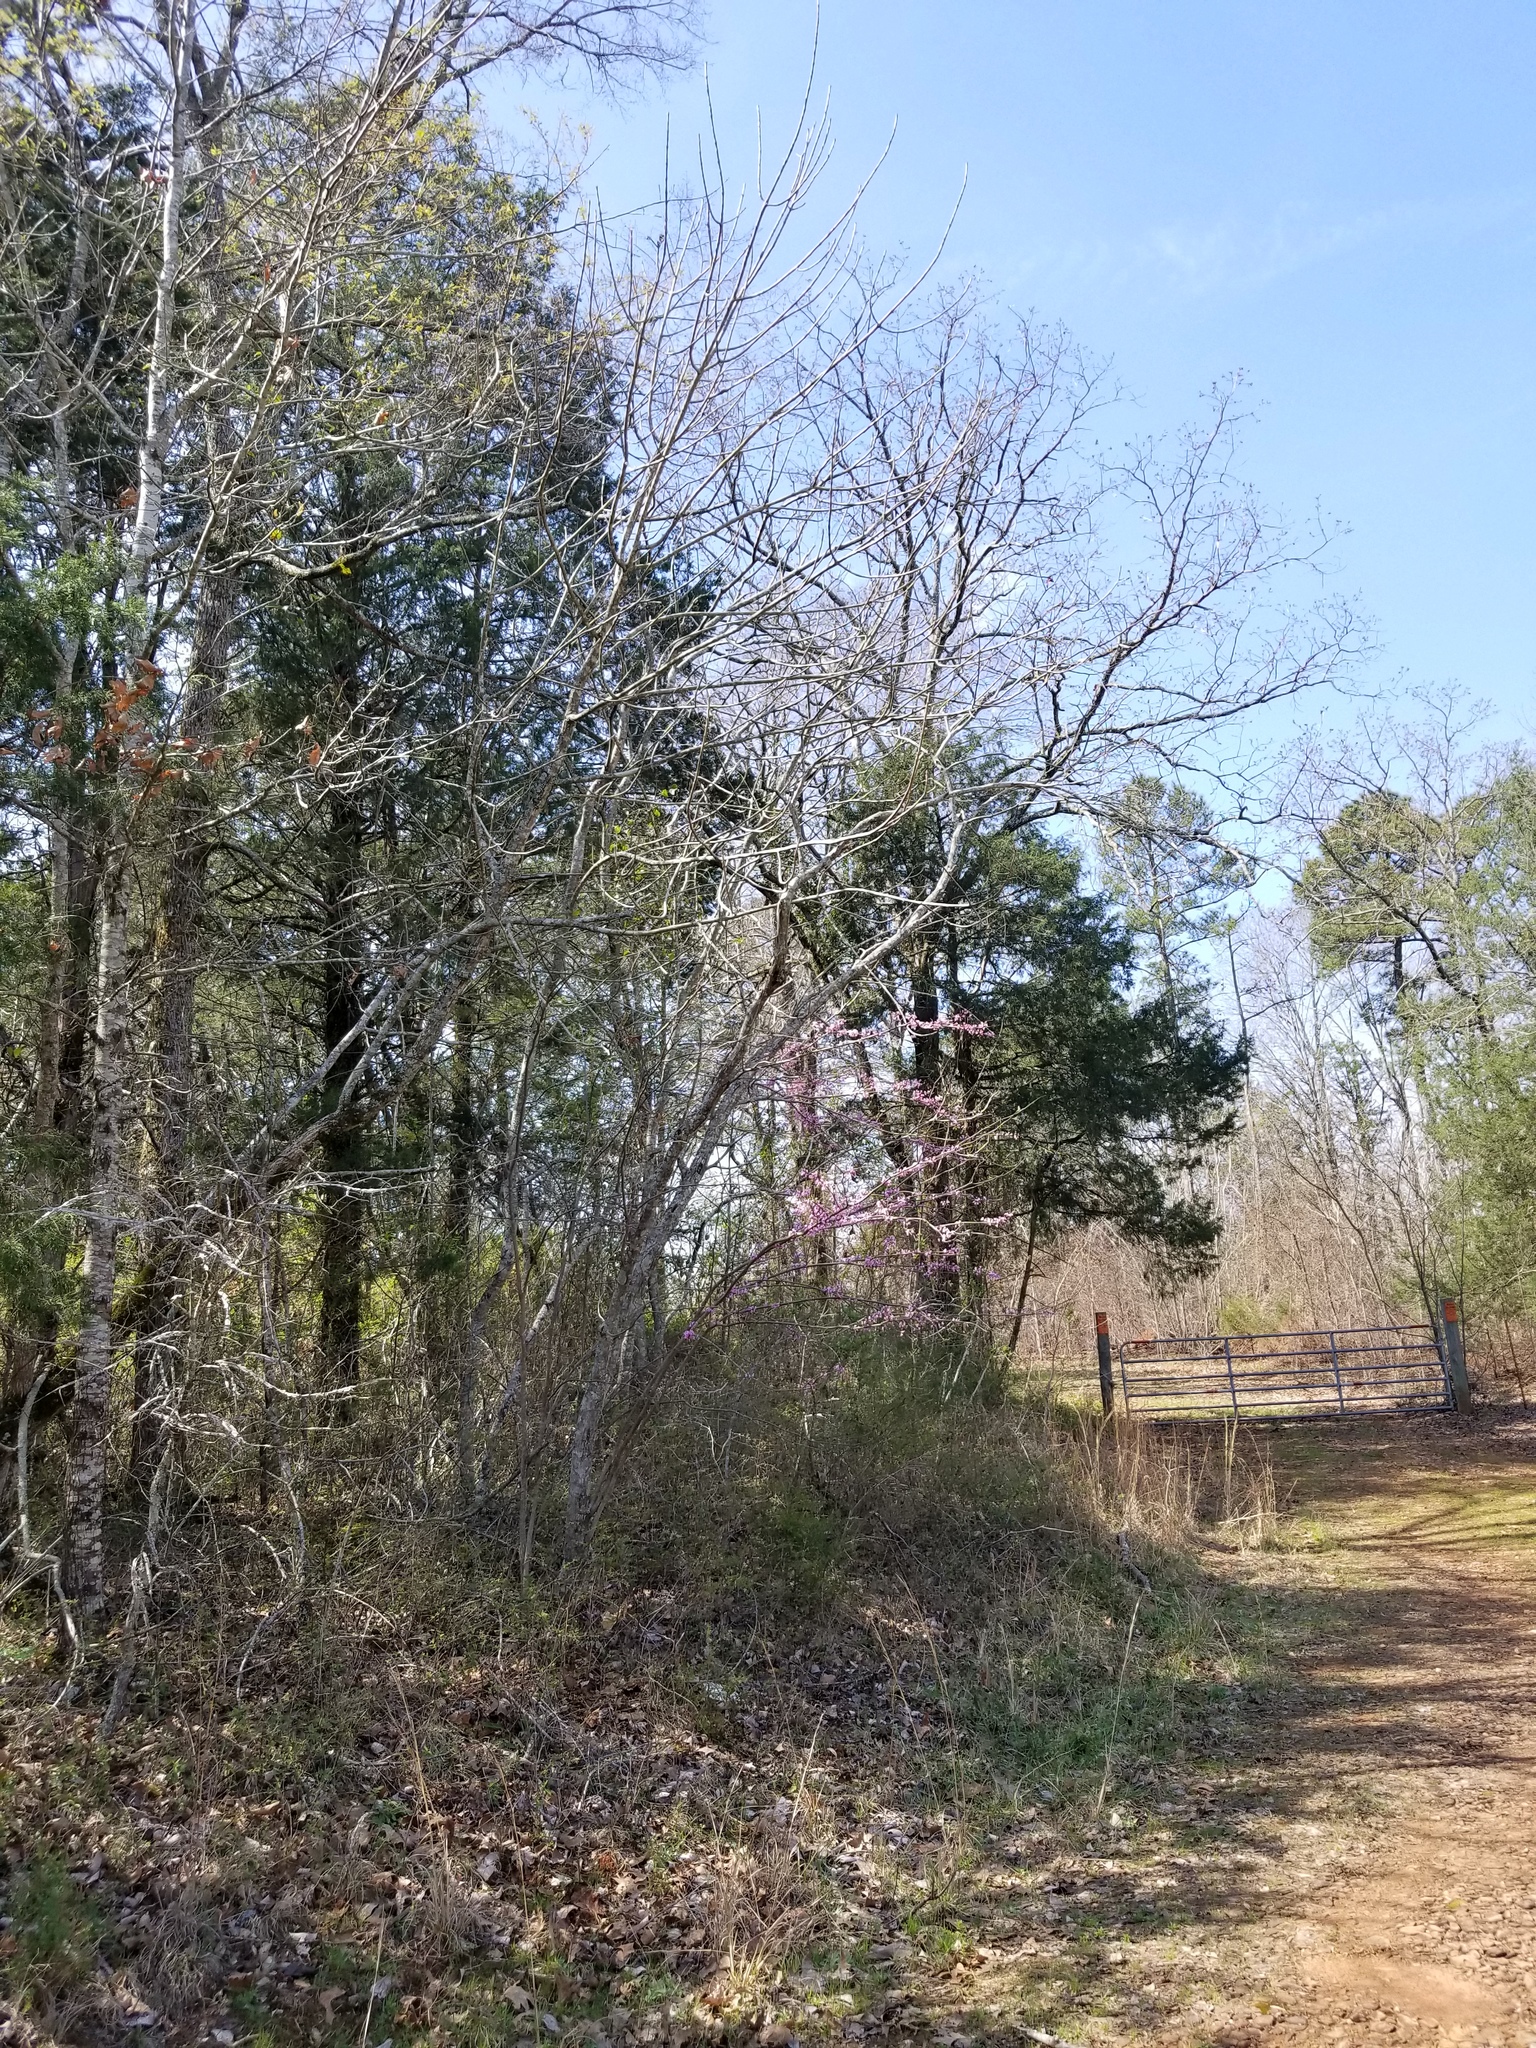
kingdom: Plantae
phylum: Tracheophyta
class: Magnoliopsida
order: Fabales
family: Fabaceae
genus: Cercis
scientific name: Cercis canadensis
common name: Eastern redbud
